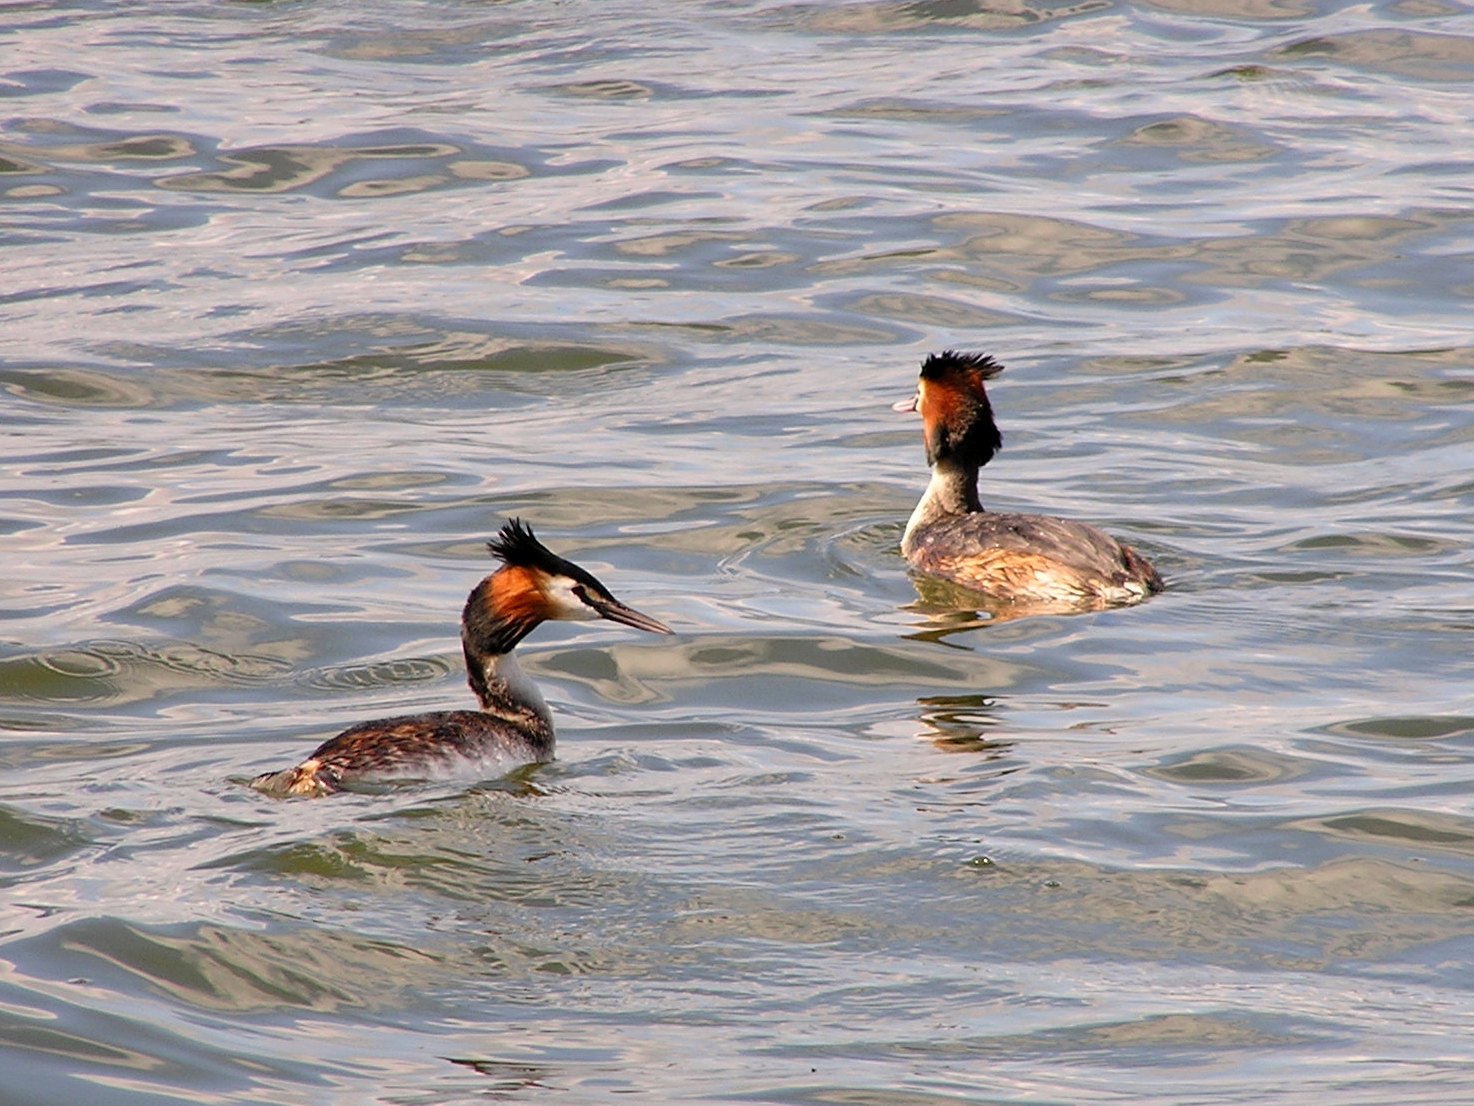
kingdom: Animalia
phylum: Chordata
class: Aves
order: Podicipediformes
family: Podicipedidae
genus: Podiceps
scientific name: Podiceps cristatus
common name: Great crested grebe
